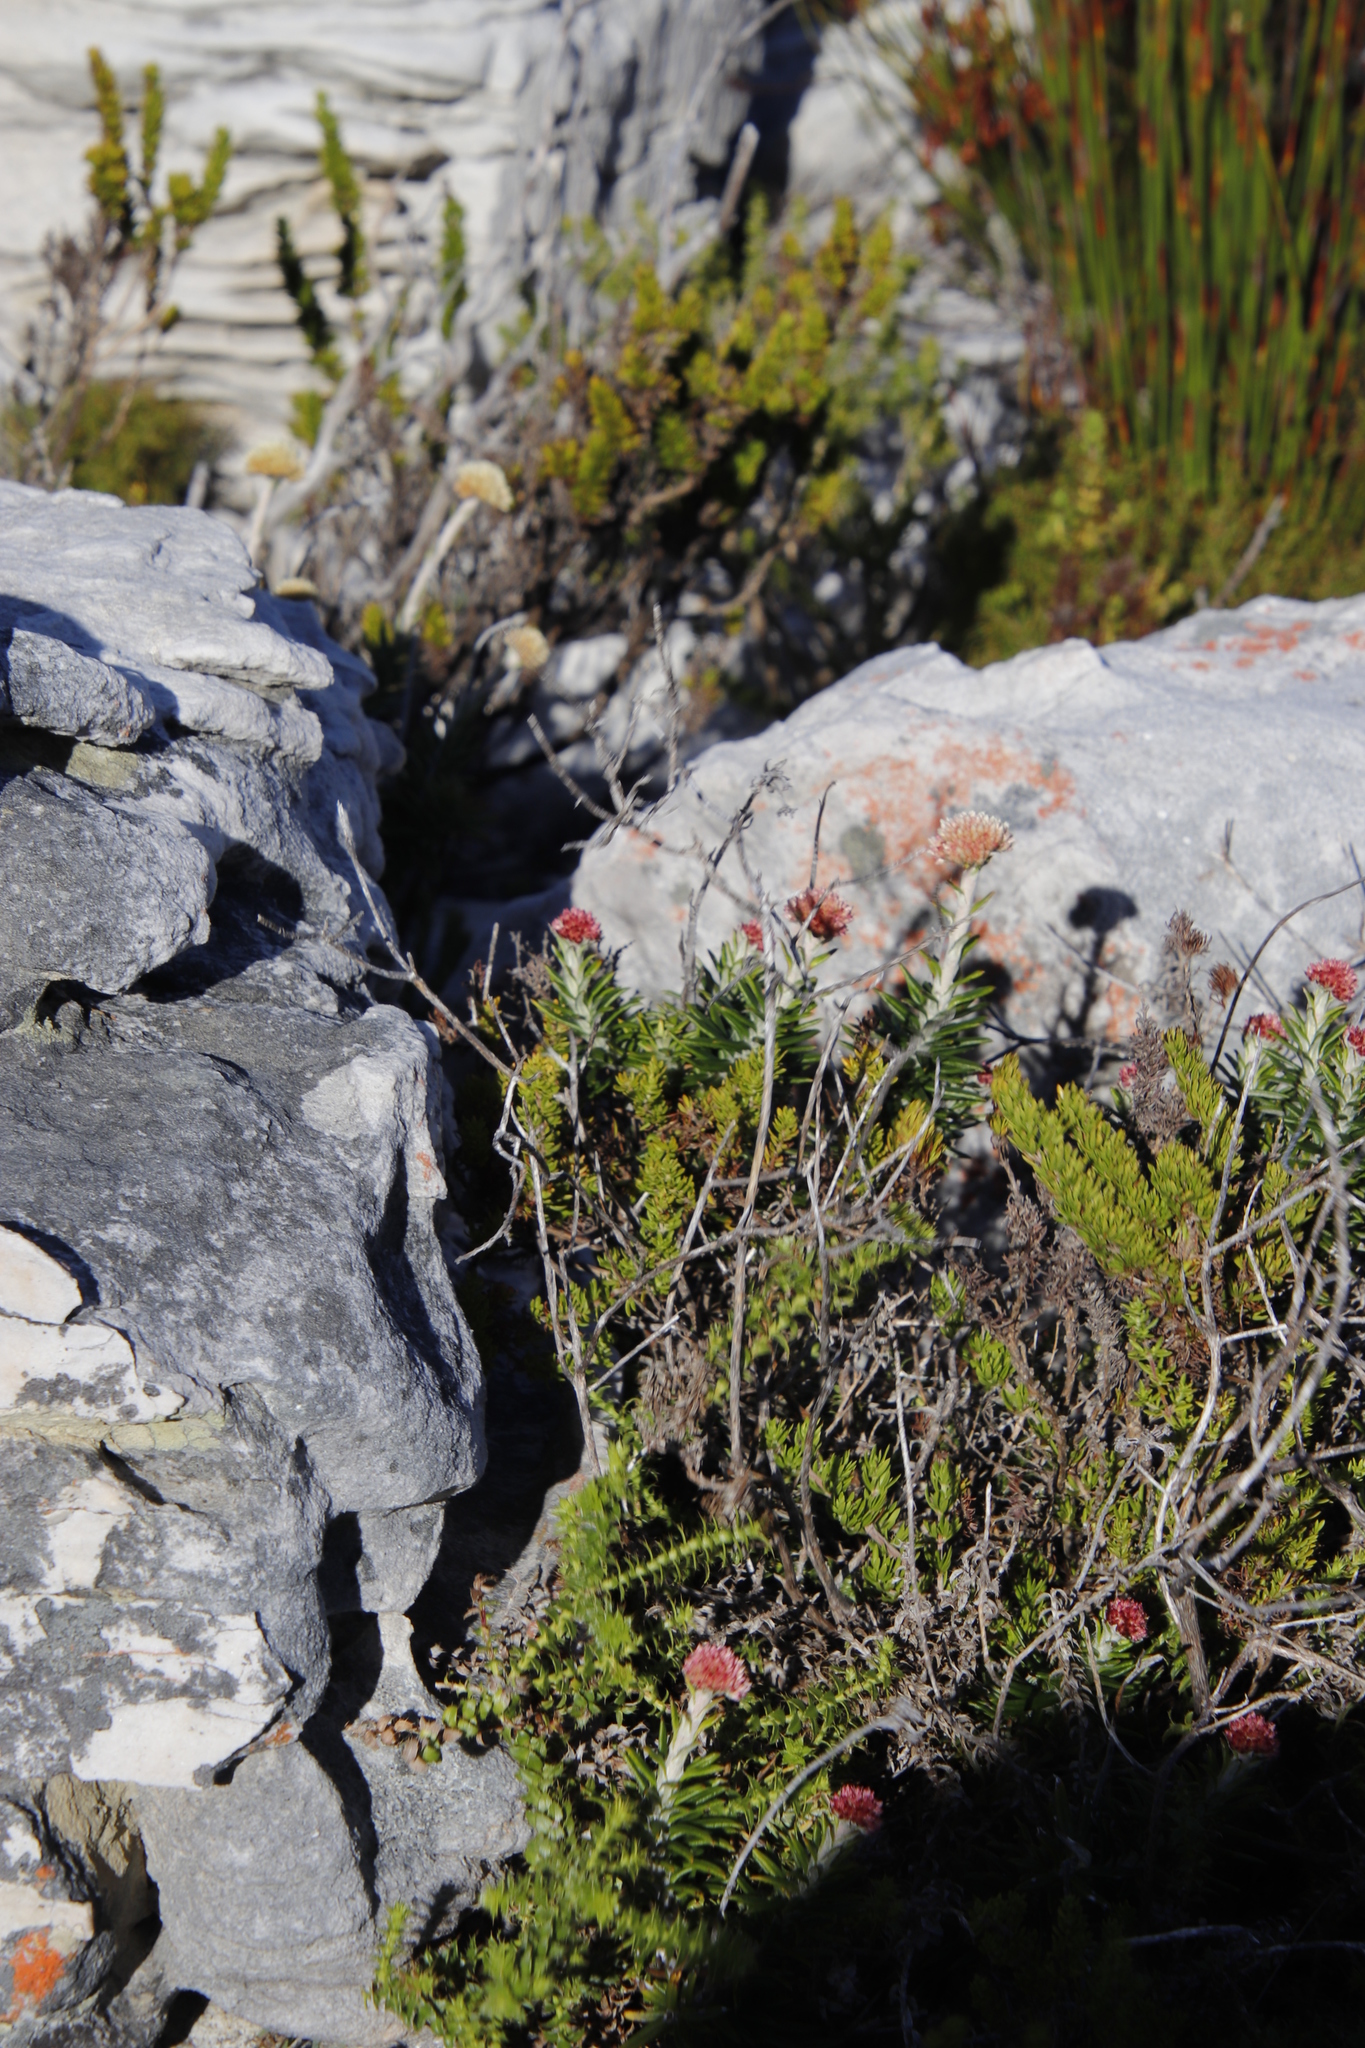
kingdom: Plantae
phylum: Tracheophyta
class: Magnoliopsida
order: Asterales
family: Asteraceae
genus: Anaxeton
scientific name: Anaxeton laeve
